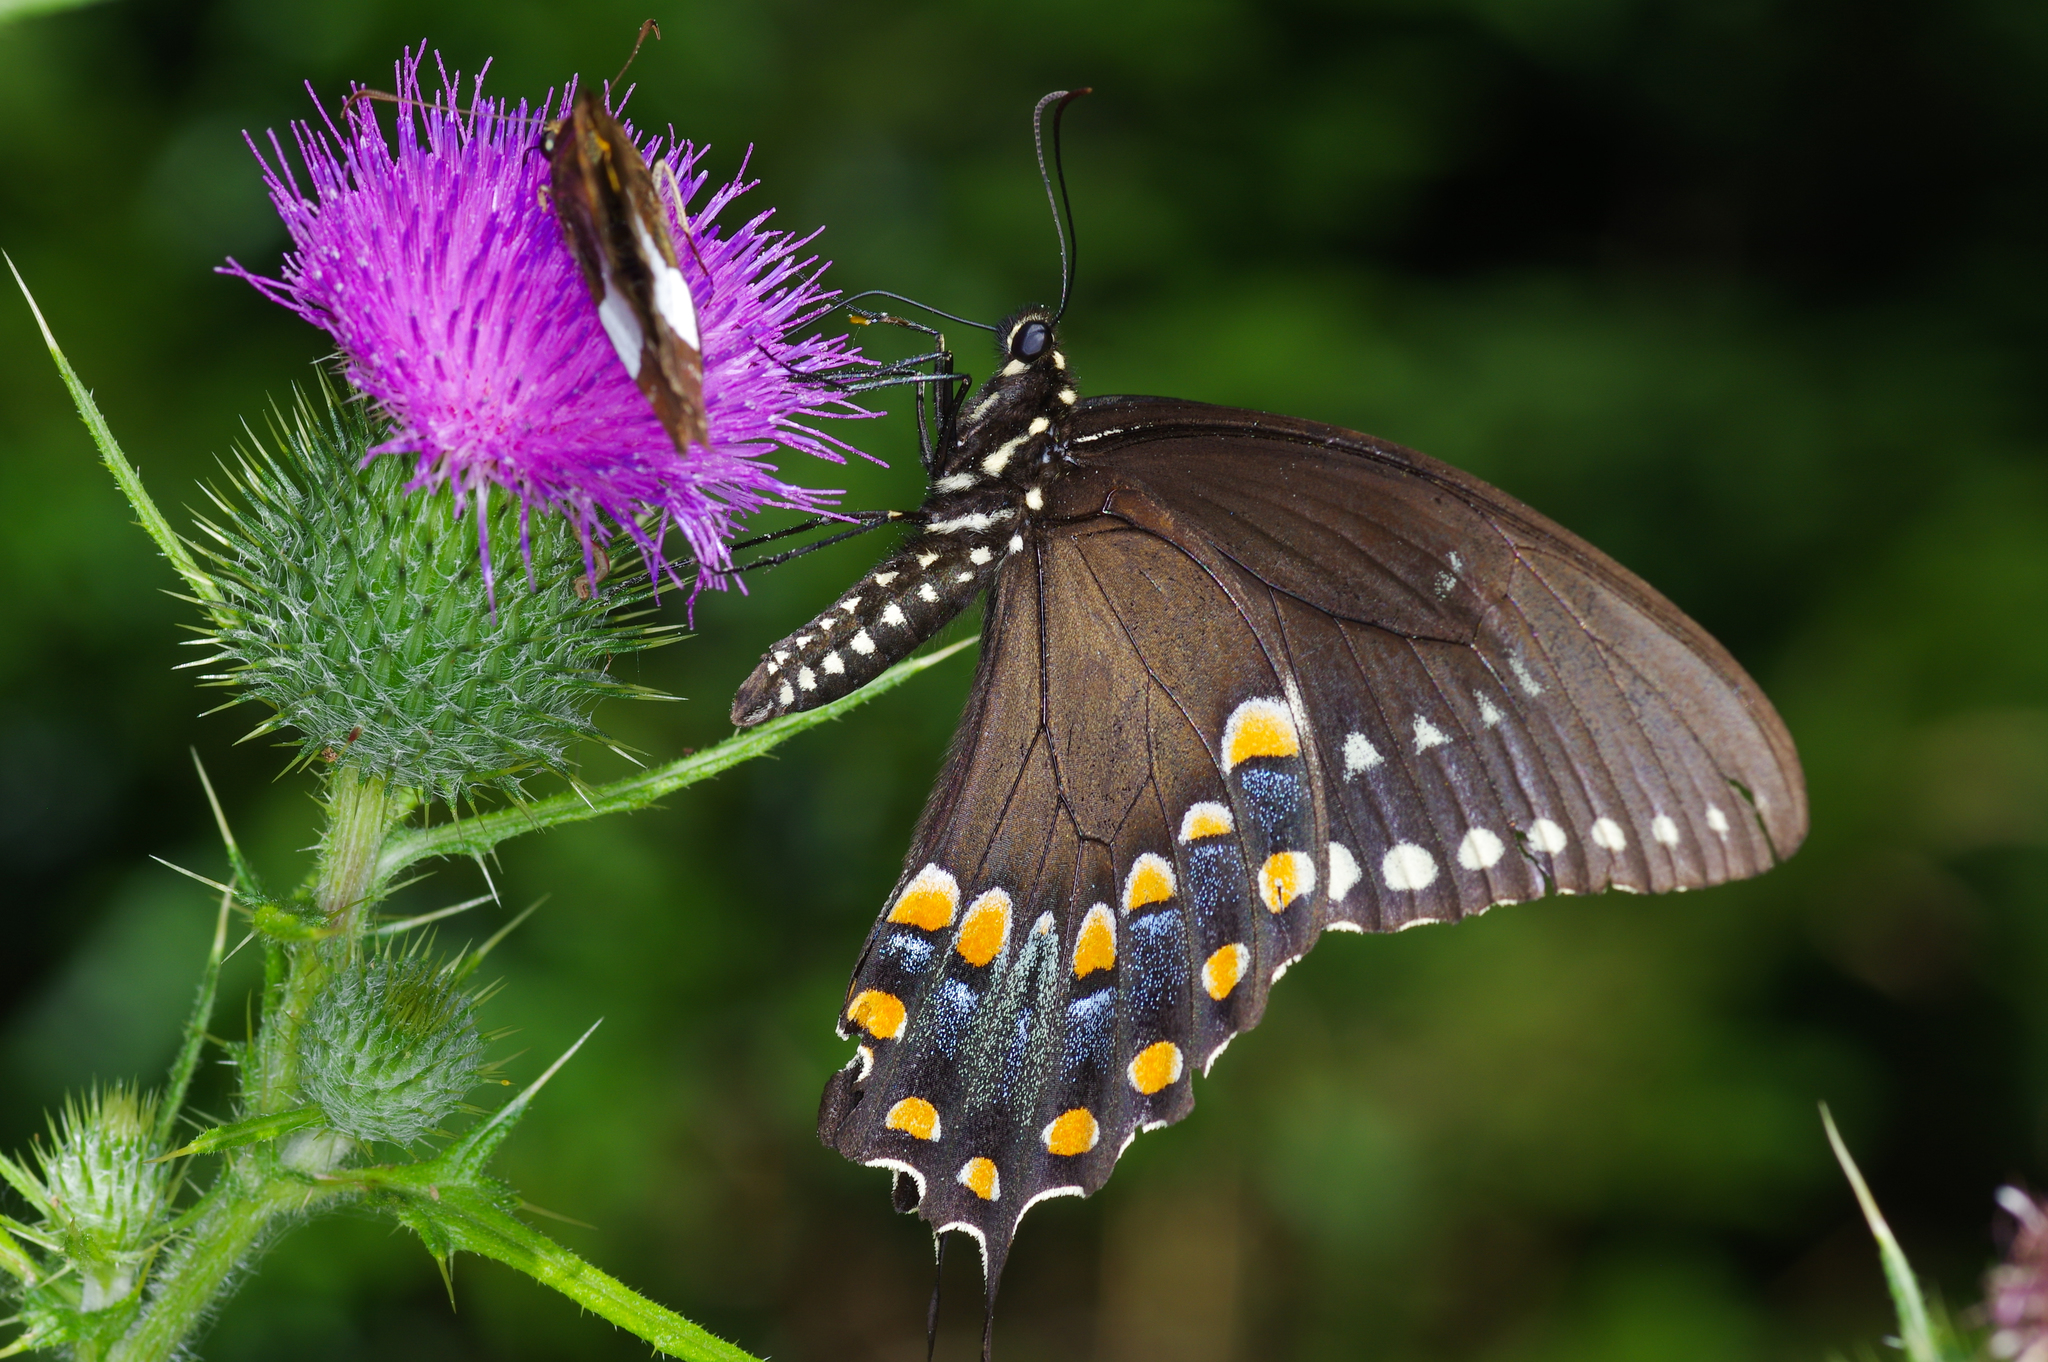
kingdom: Animalia
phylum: Arthropoda
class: Insecta
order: Lepidoptera
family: Papilionidae
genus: Papilio
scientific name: Papilio troilus
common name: Spicebush swallowtail
